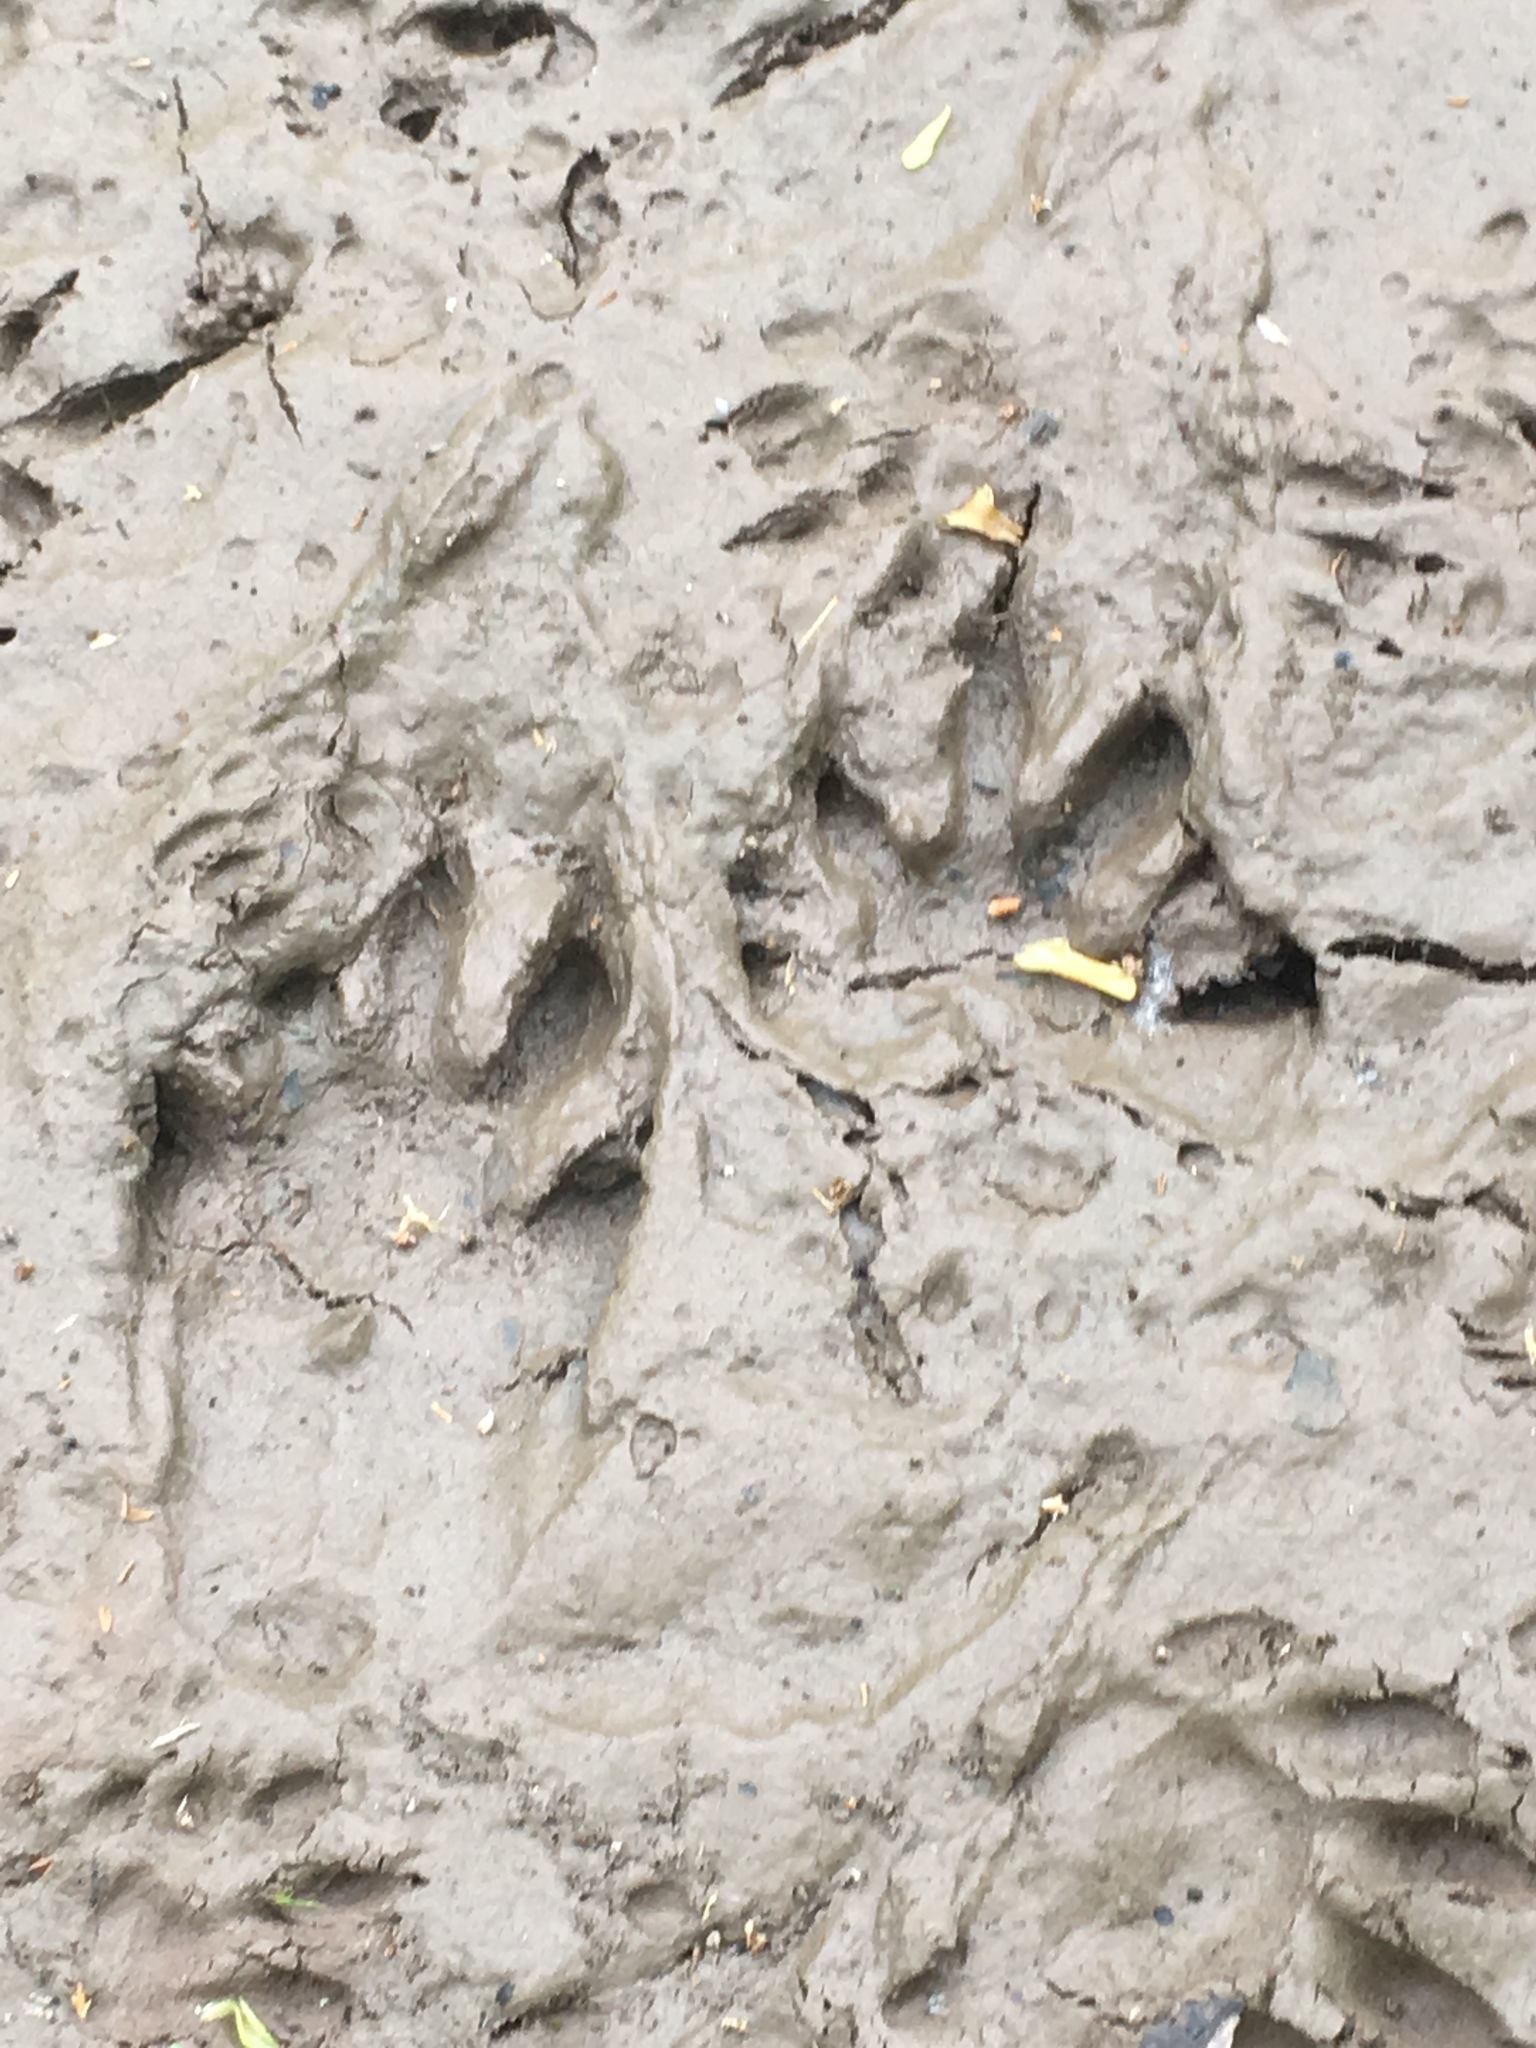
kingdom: Animalia
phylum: Chordata
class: Mammalia
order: Carnivora
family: Procyonidae
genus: Procyon
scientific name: Procyon lotor
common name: Raccoon
